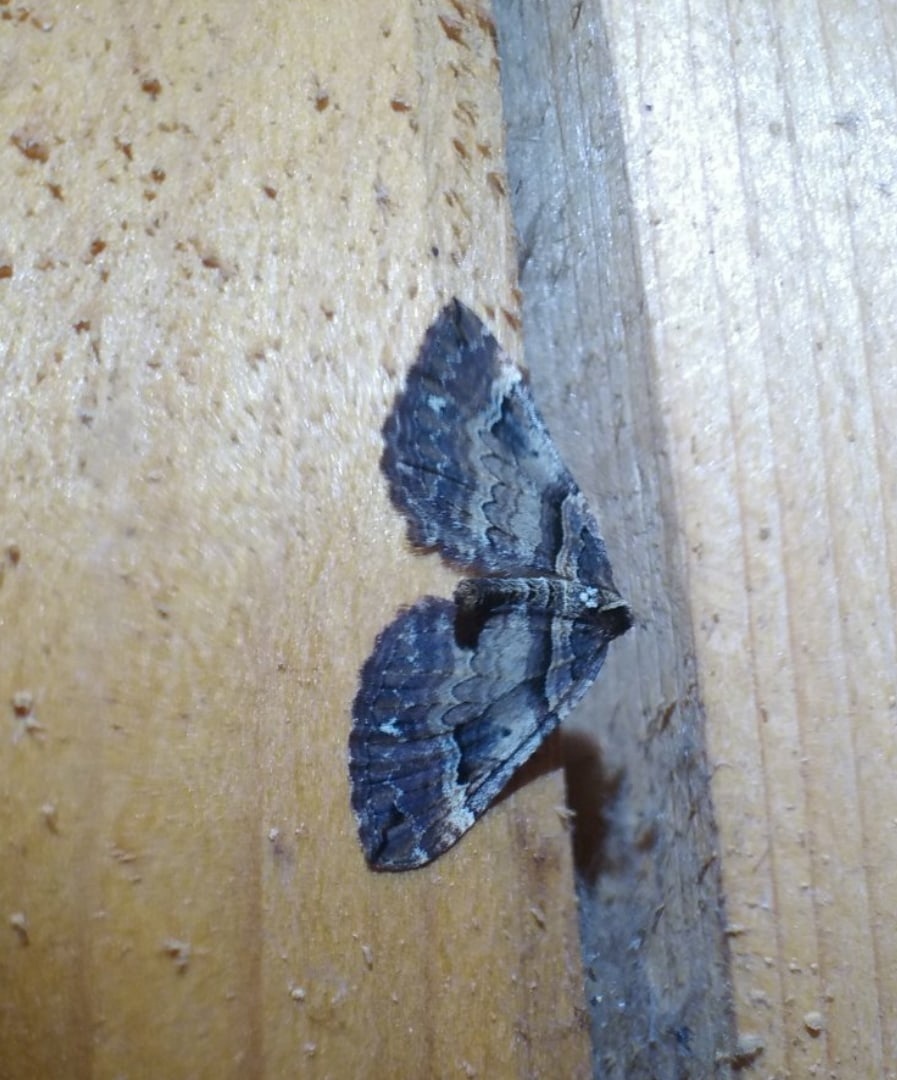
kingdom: Animalia
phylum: Arthropoda
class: Insecta
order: Lepidoptera
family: Geometridae
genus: Anticlea
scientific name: Anticlea badiata
